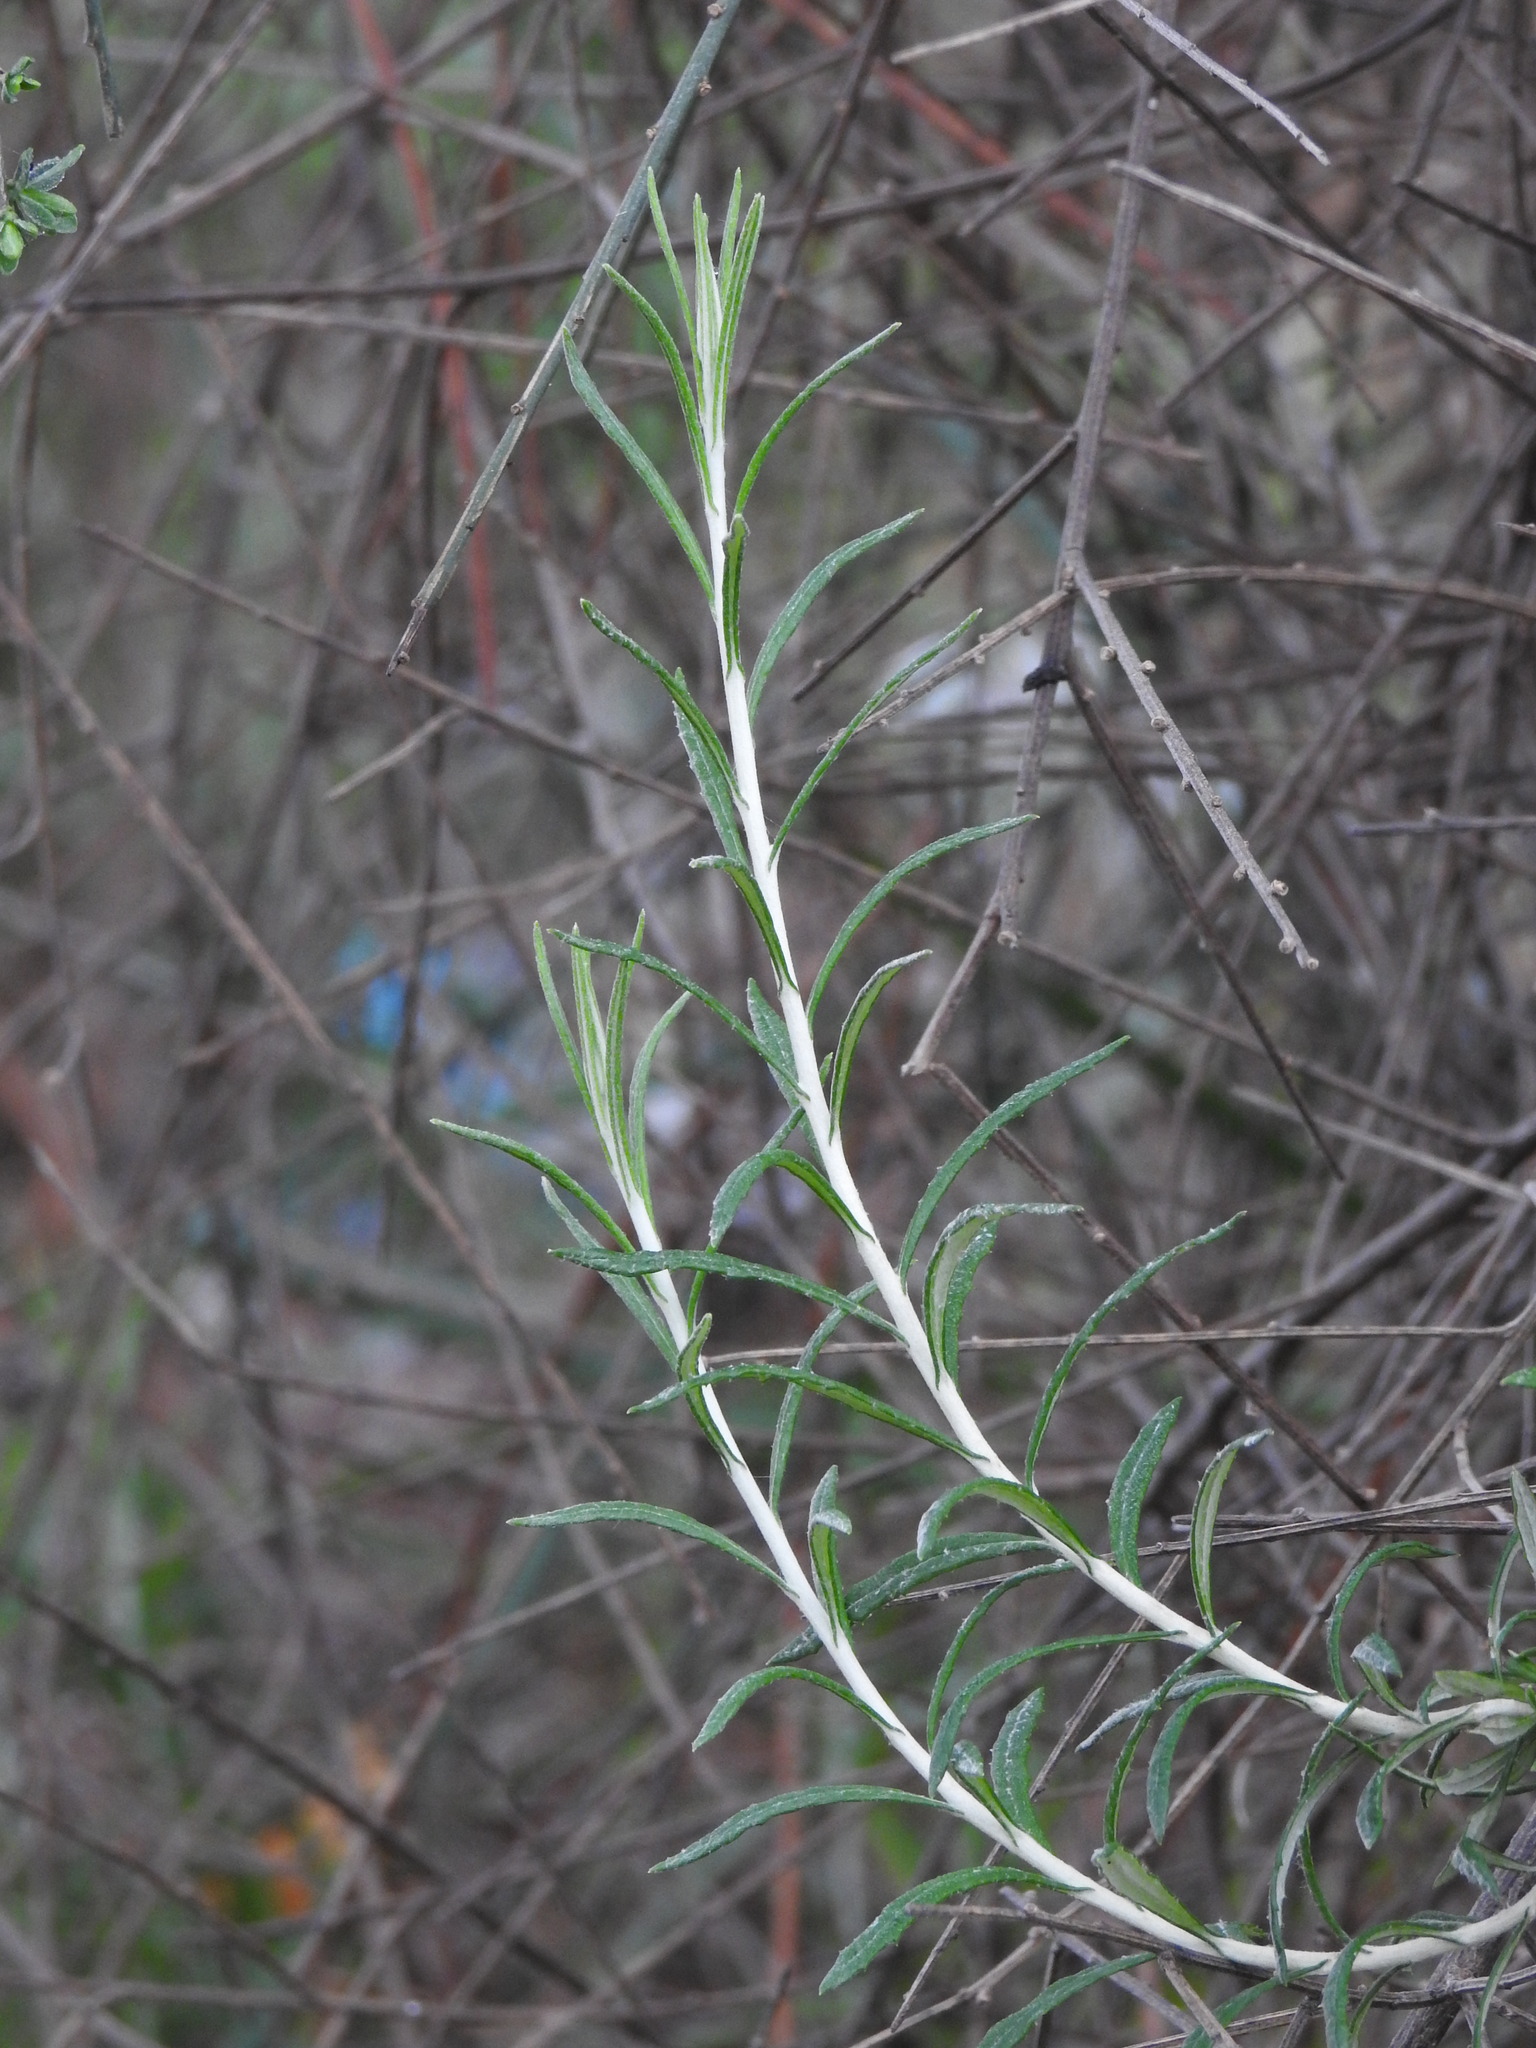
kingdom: Plantae
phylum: Tracheophyta
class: Magnoliopsida
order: Asterales
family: Asteraceae
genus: Phagnalon
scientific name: Phagnalon saxatile
